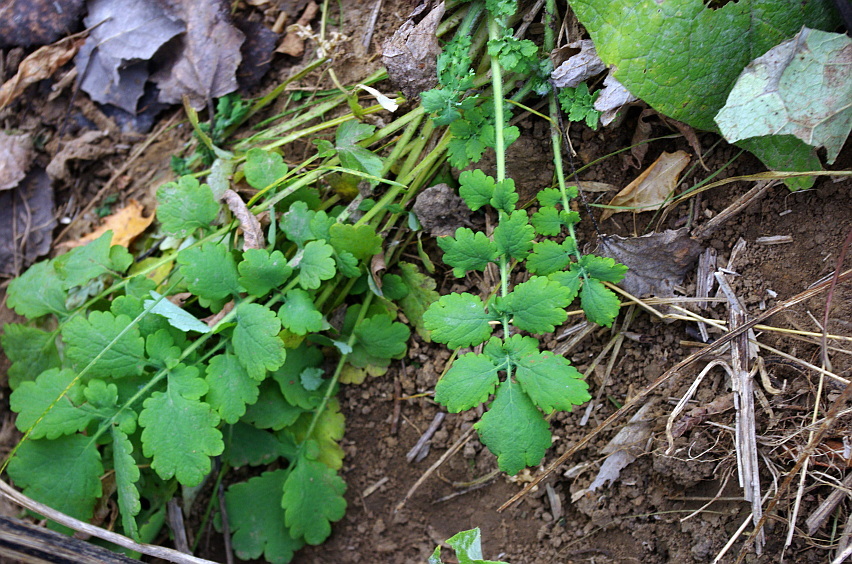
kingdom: Plantae
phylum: Tracheophyta
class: Magnoliopsida
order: Ranunculales
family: Papaveraceae
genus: Chelidonium
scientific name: Chelidonium majus
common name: Greater celandine
